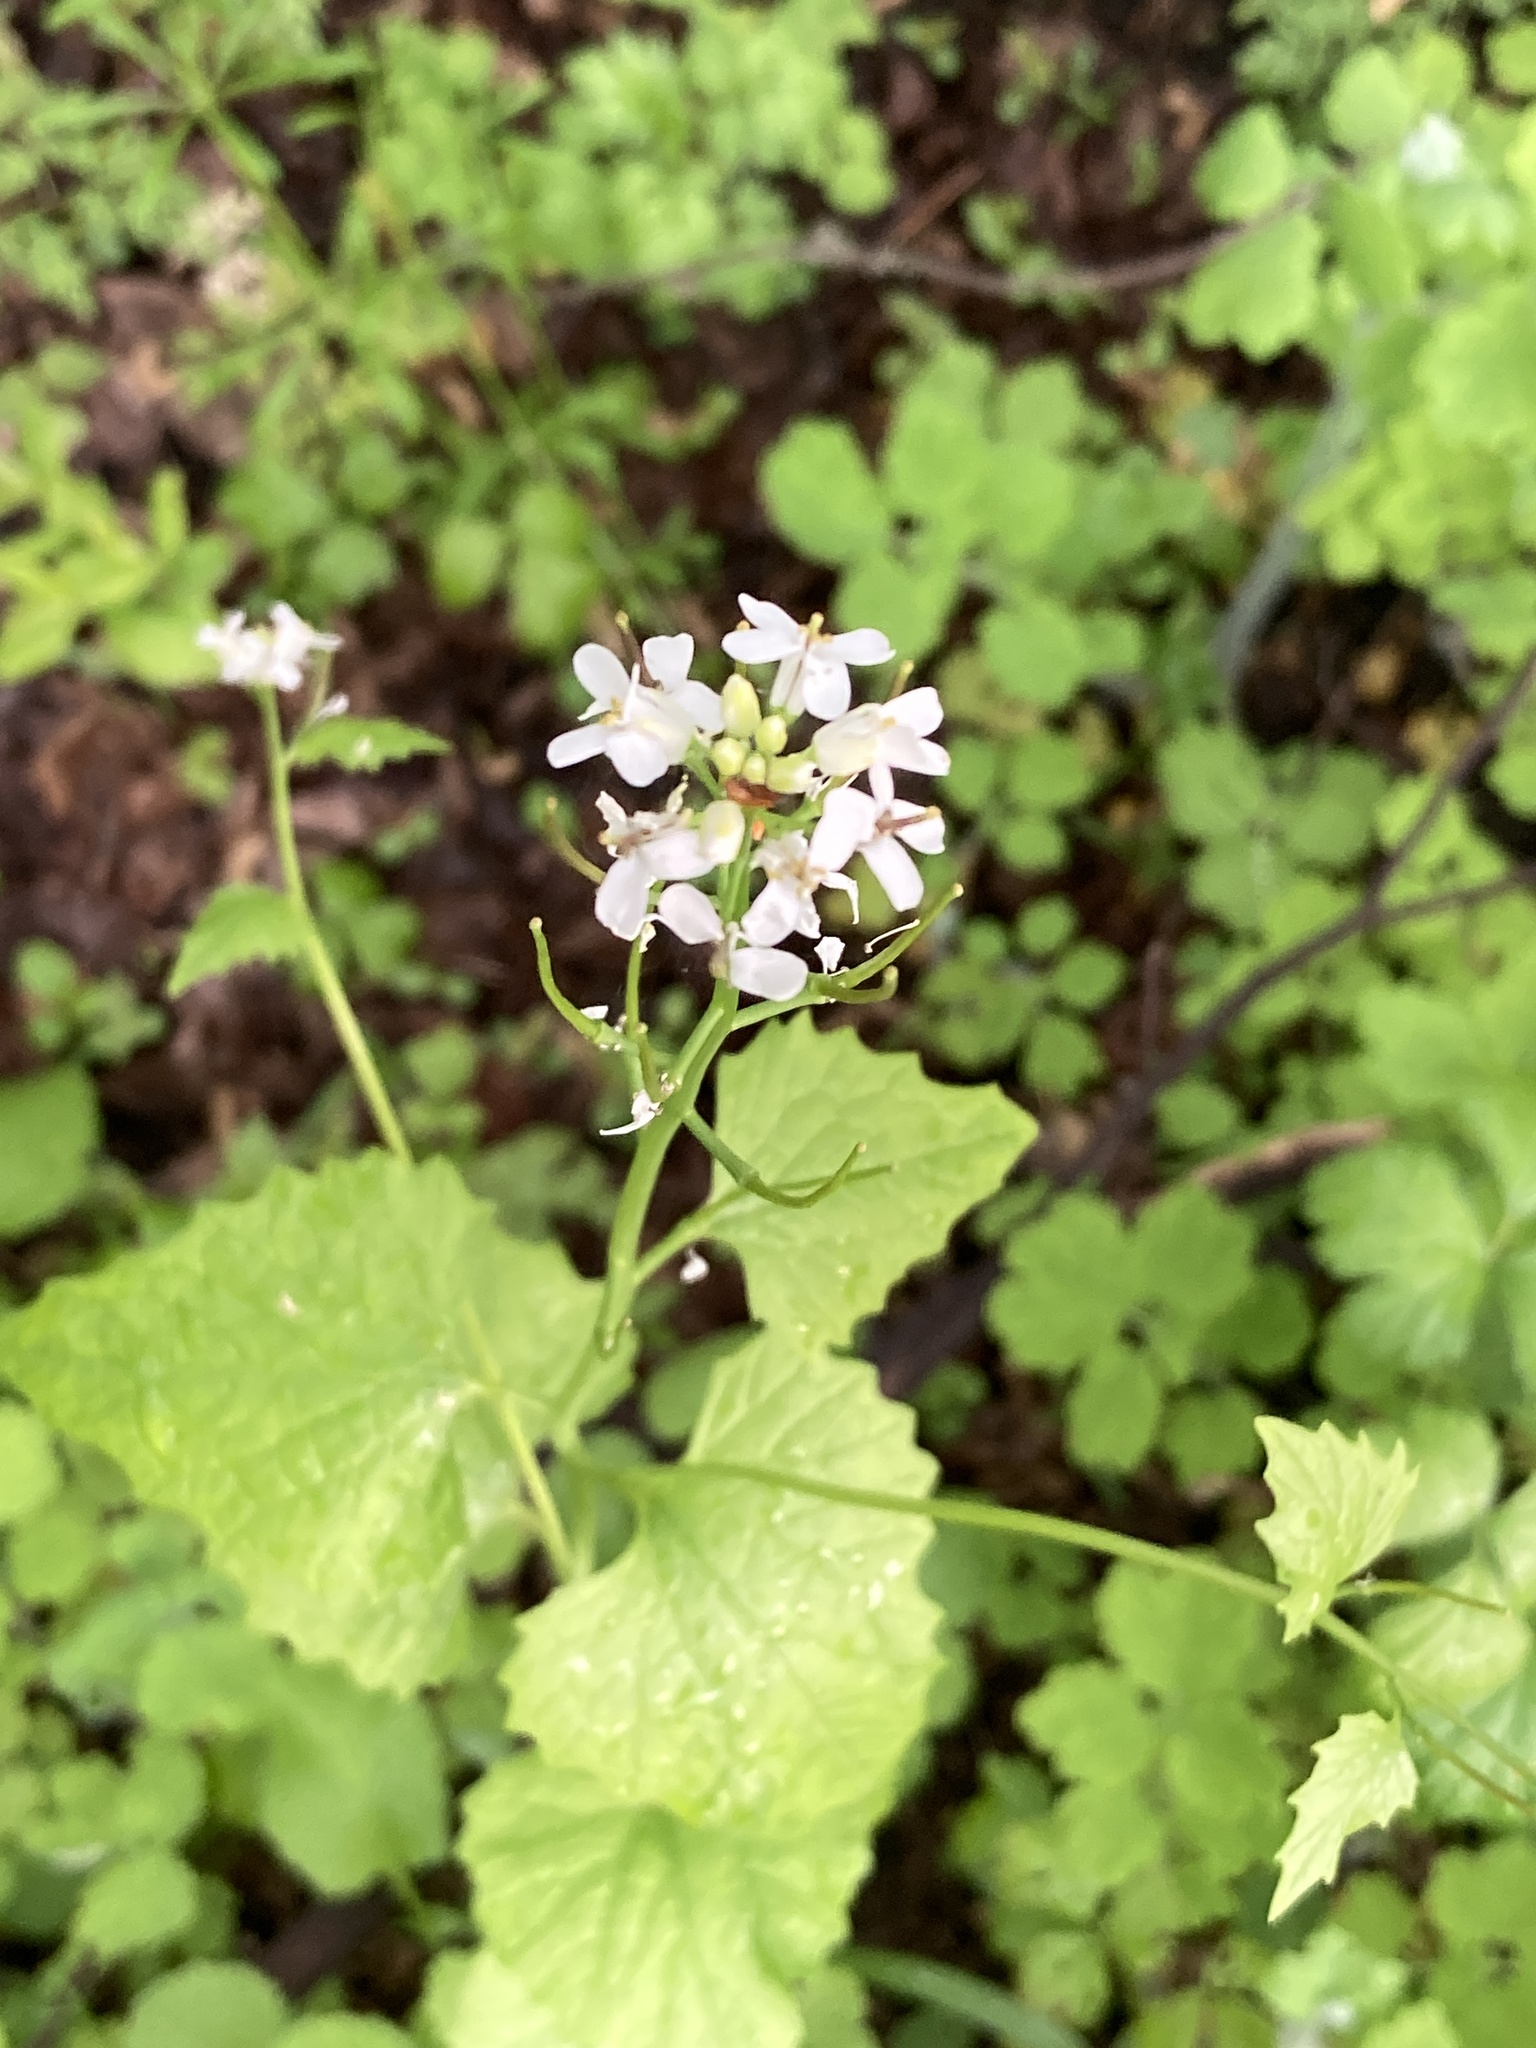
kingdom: Plantae
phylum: Tracheophyta
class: Magnoliopsida
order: Brassicales
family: Brassicaceae
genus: Alliaria
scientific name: Alliaria petiolata
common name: Garlic mustard
